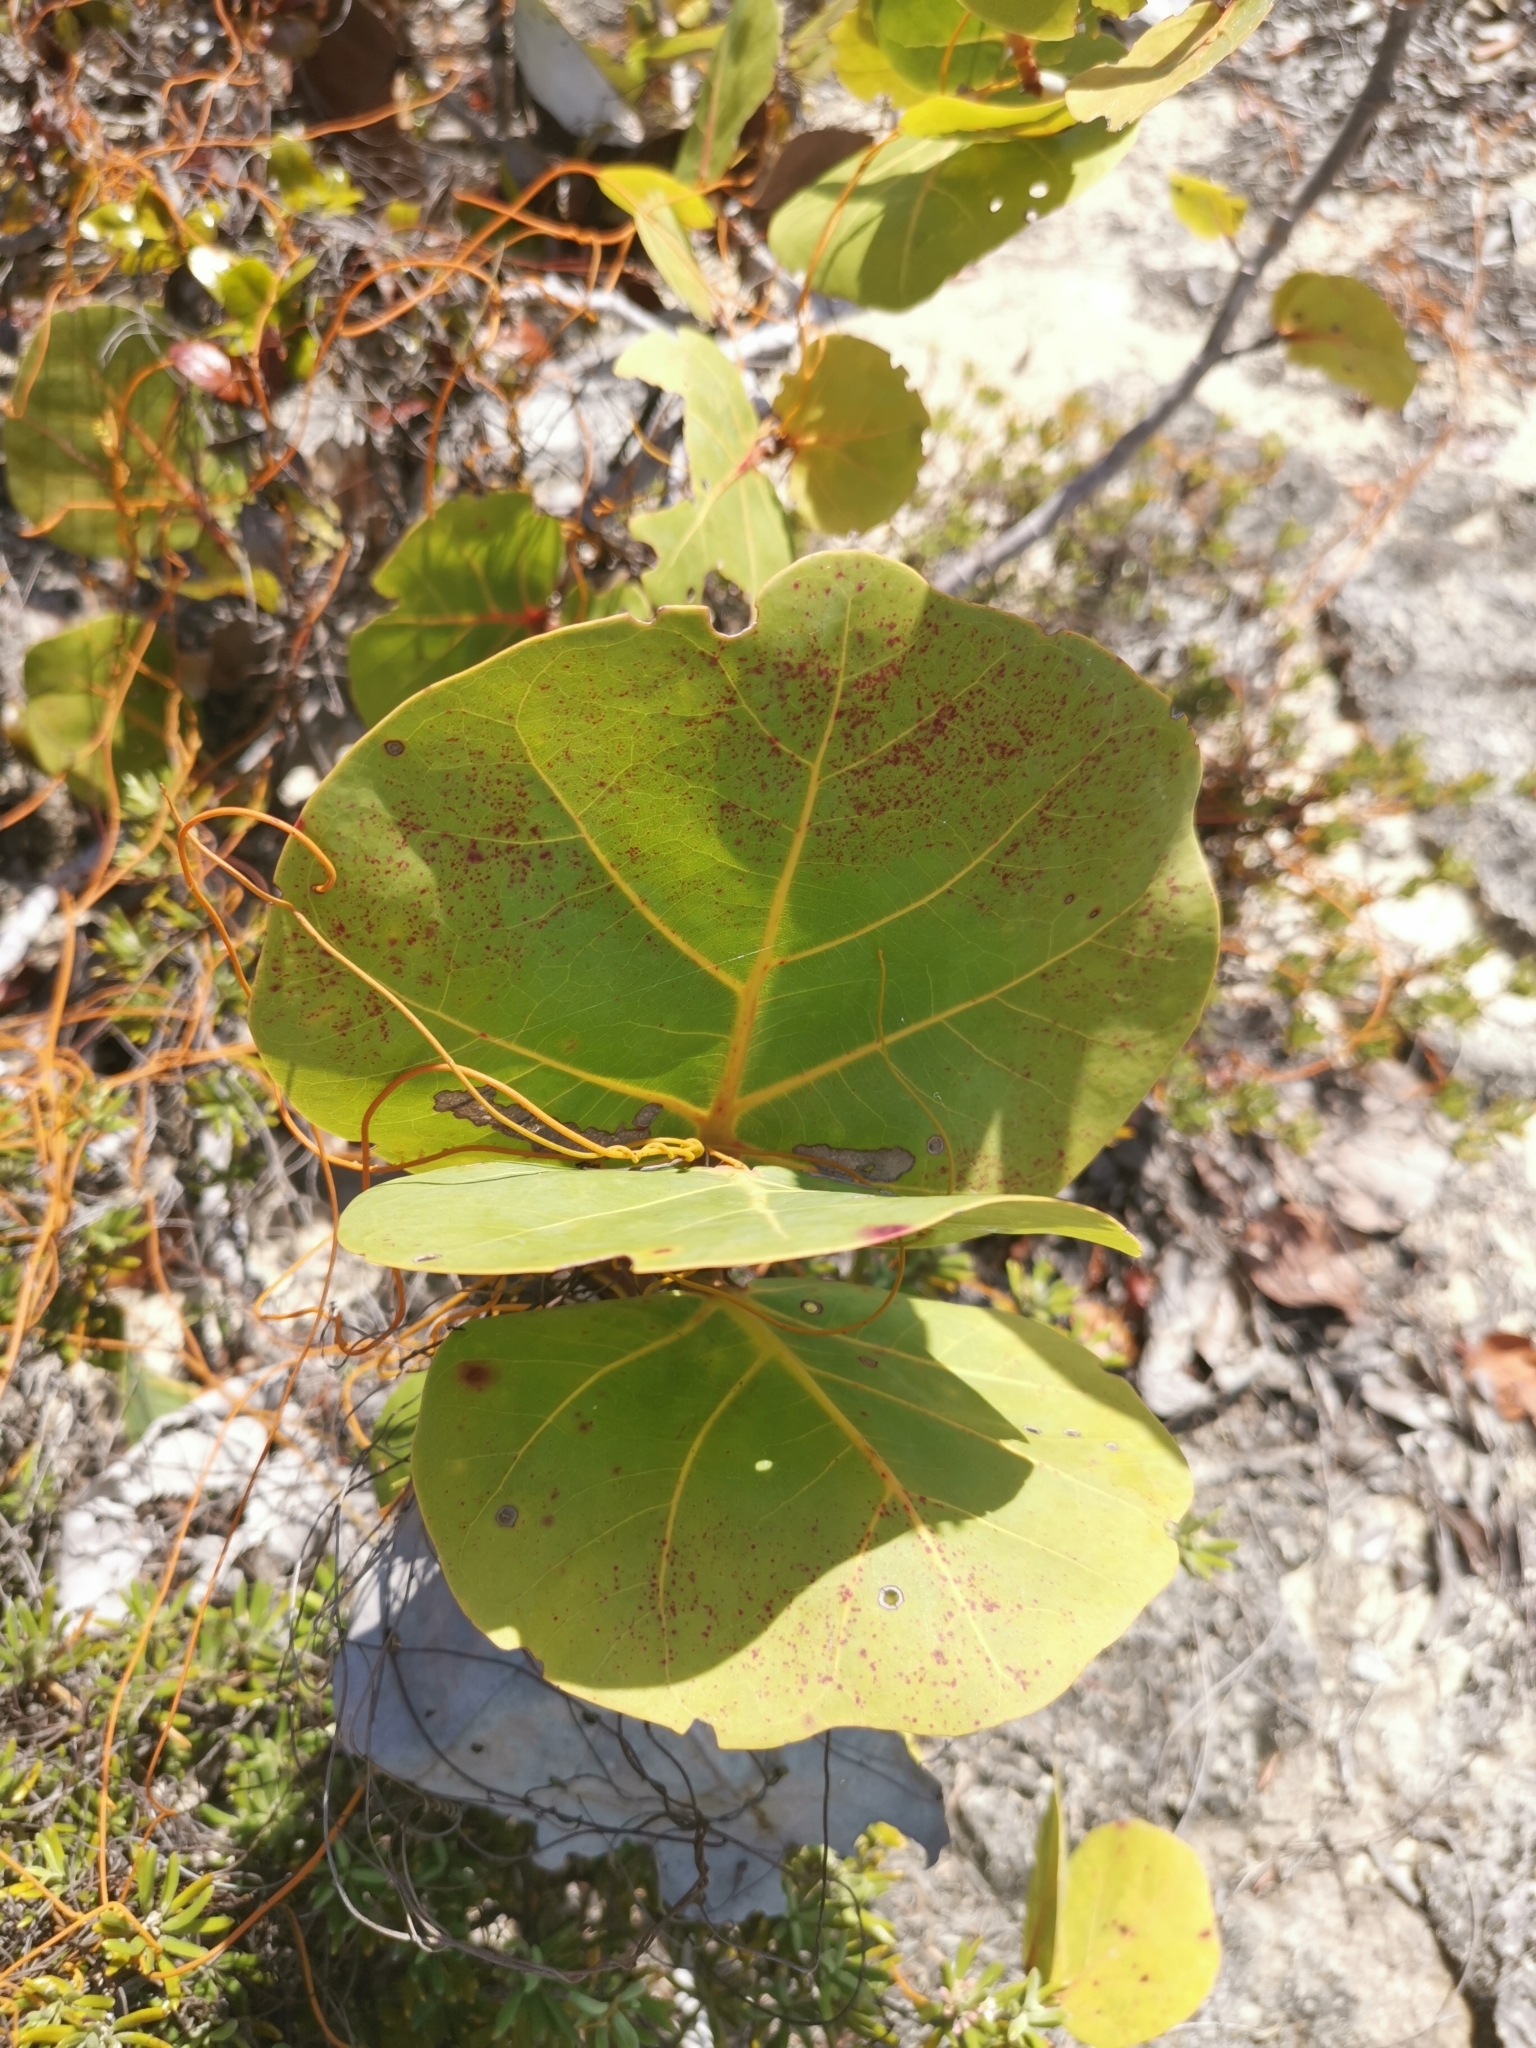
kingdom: Plantae
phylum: Tracheophyta
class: Magnoliopsida
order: Caryophyllales
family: Polygonaceae
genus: Coccoloba
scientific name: Coccoloba uvifera
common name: Seagrape
